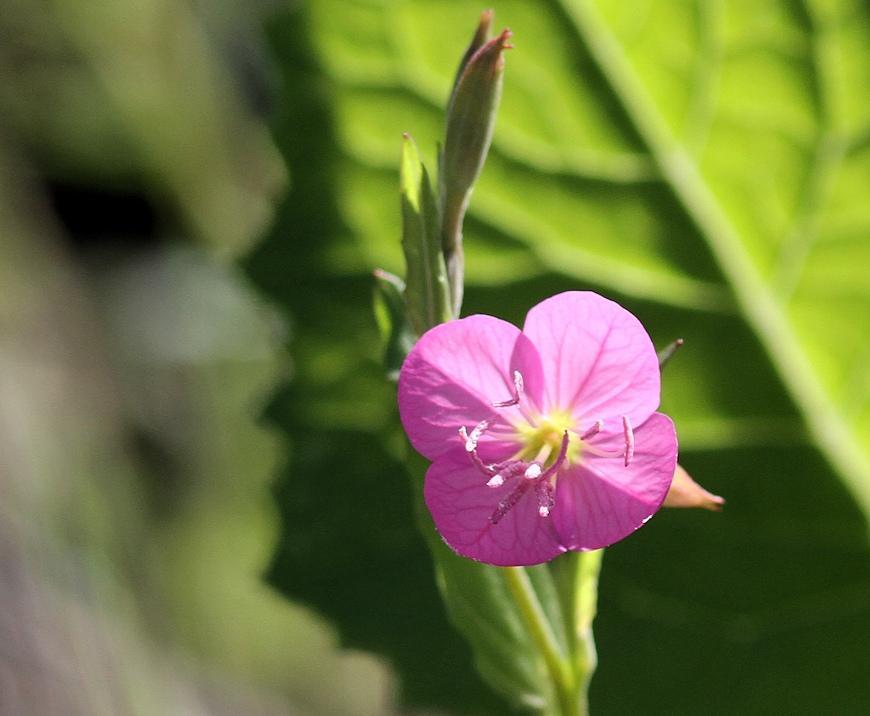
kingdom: Plantae
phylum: Tracheophyta
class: Magnoliopsida
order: Myrtales
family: Onagraceae
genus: Oenothera
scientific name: Oenothera rosea
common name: Rosy evening-primrose
